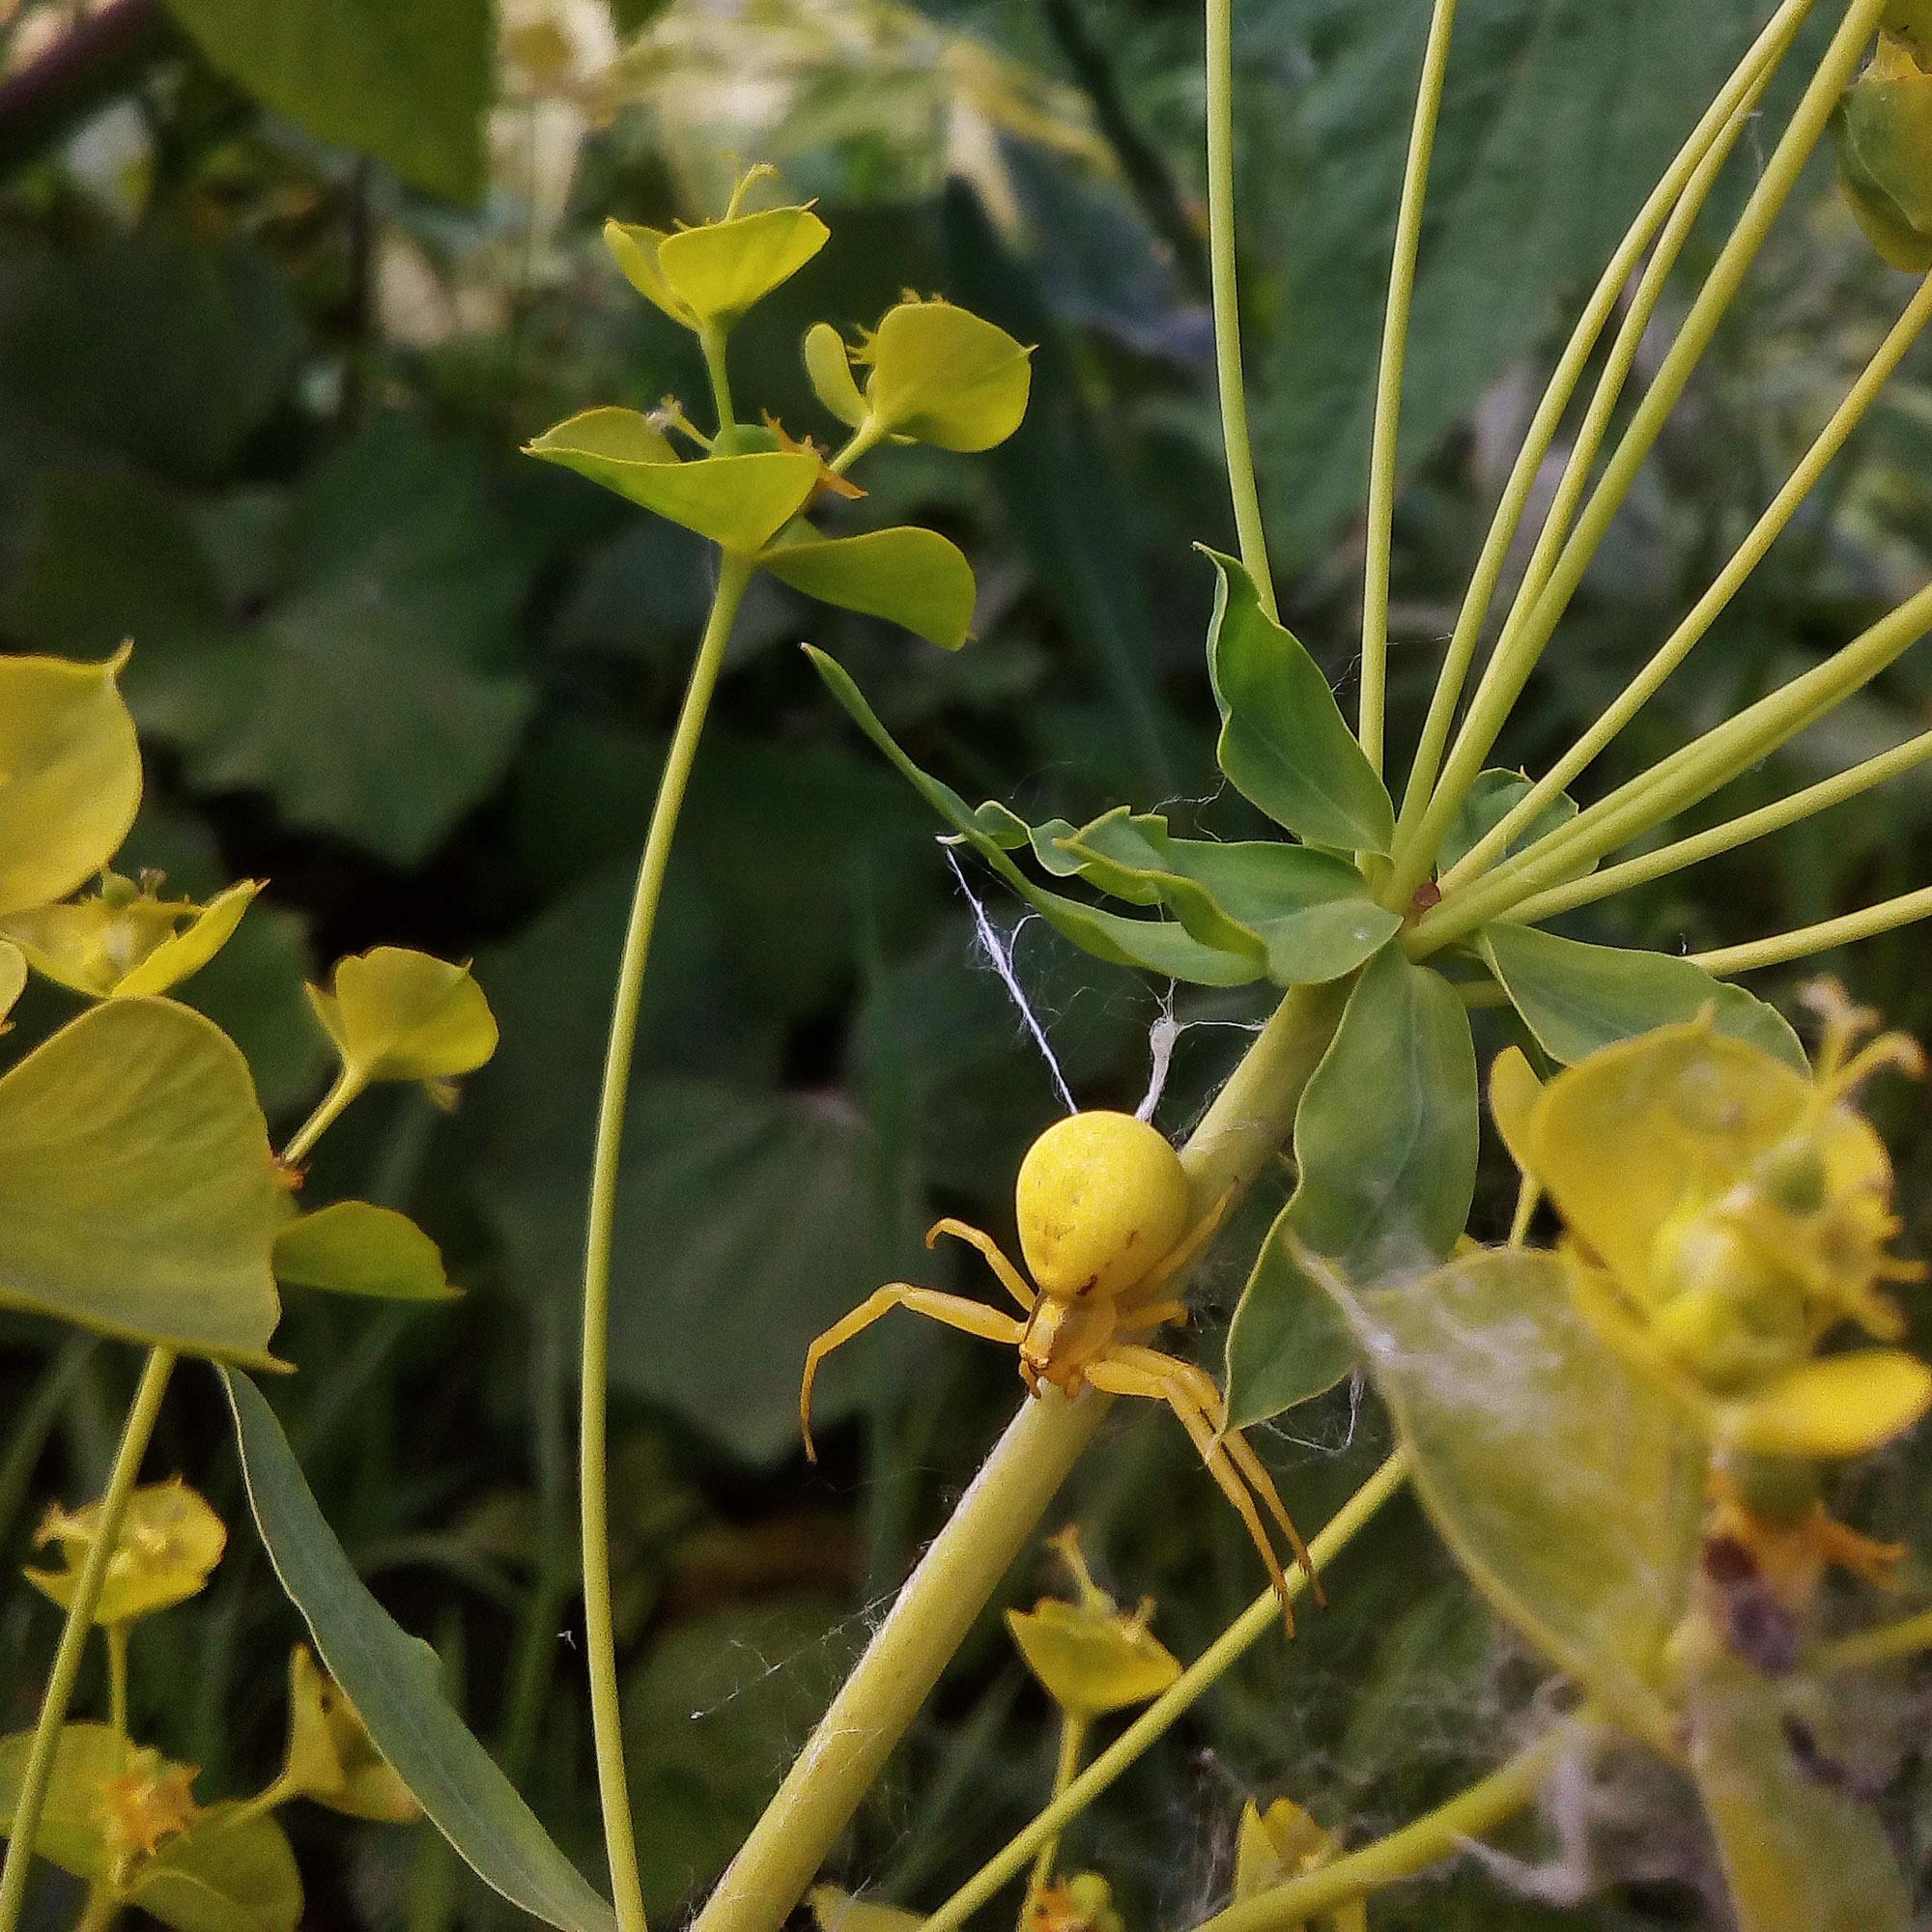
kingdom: Animalia
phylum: Arthropoda
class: Arachnida
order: Araneae
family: Thomisidae
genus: Misumena
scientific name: Misumena vatia
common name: Goldenrod crab spider
